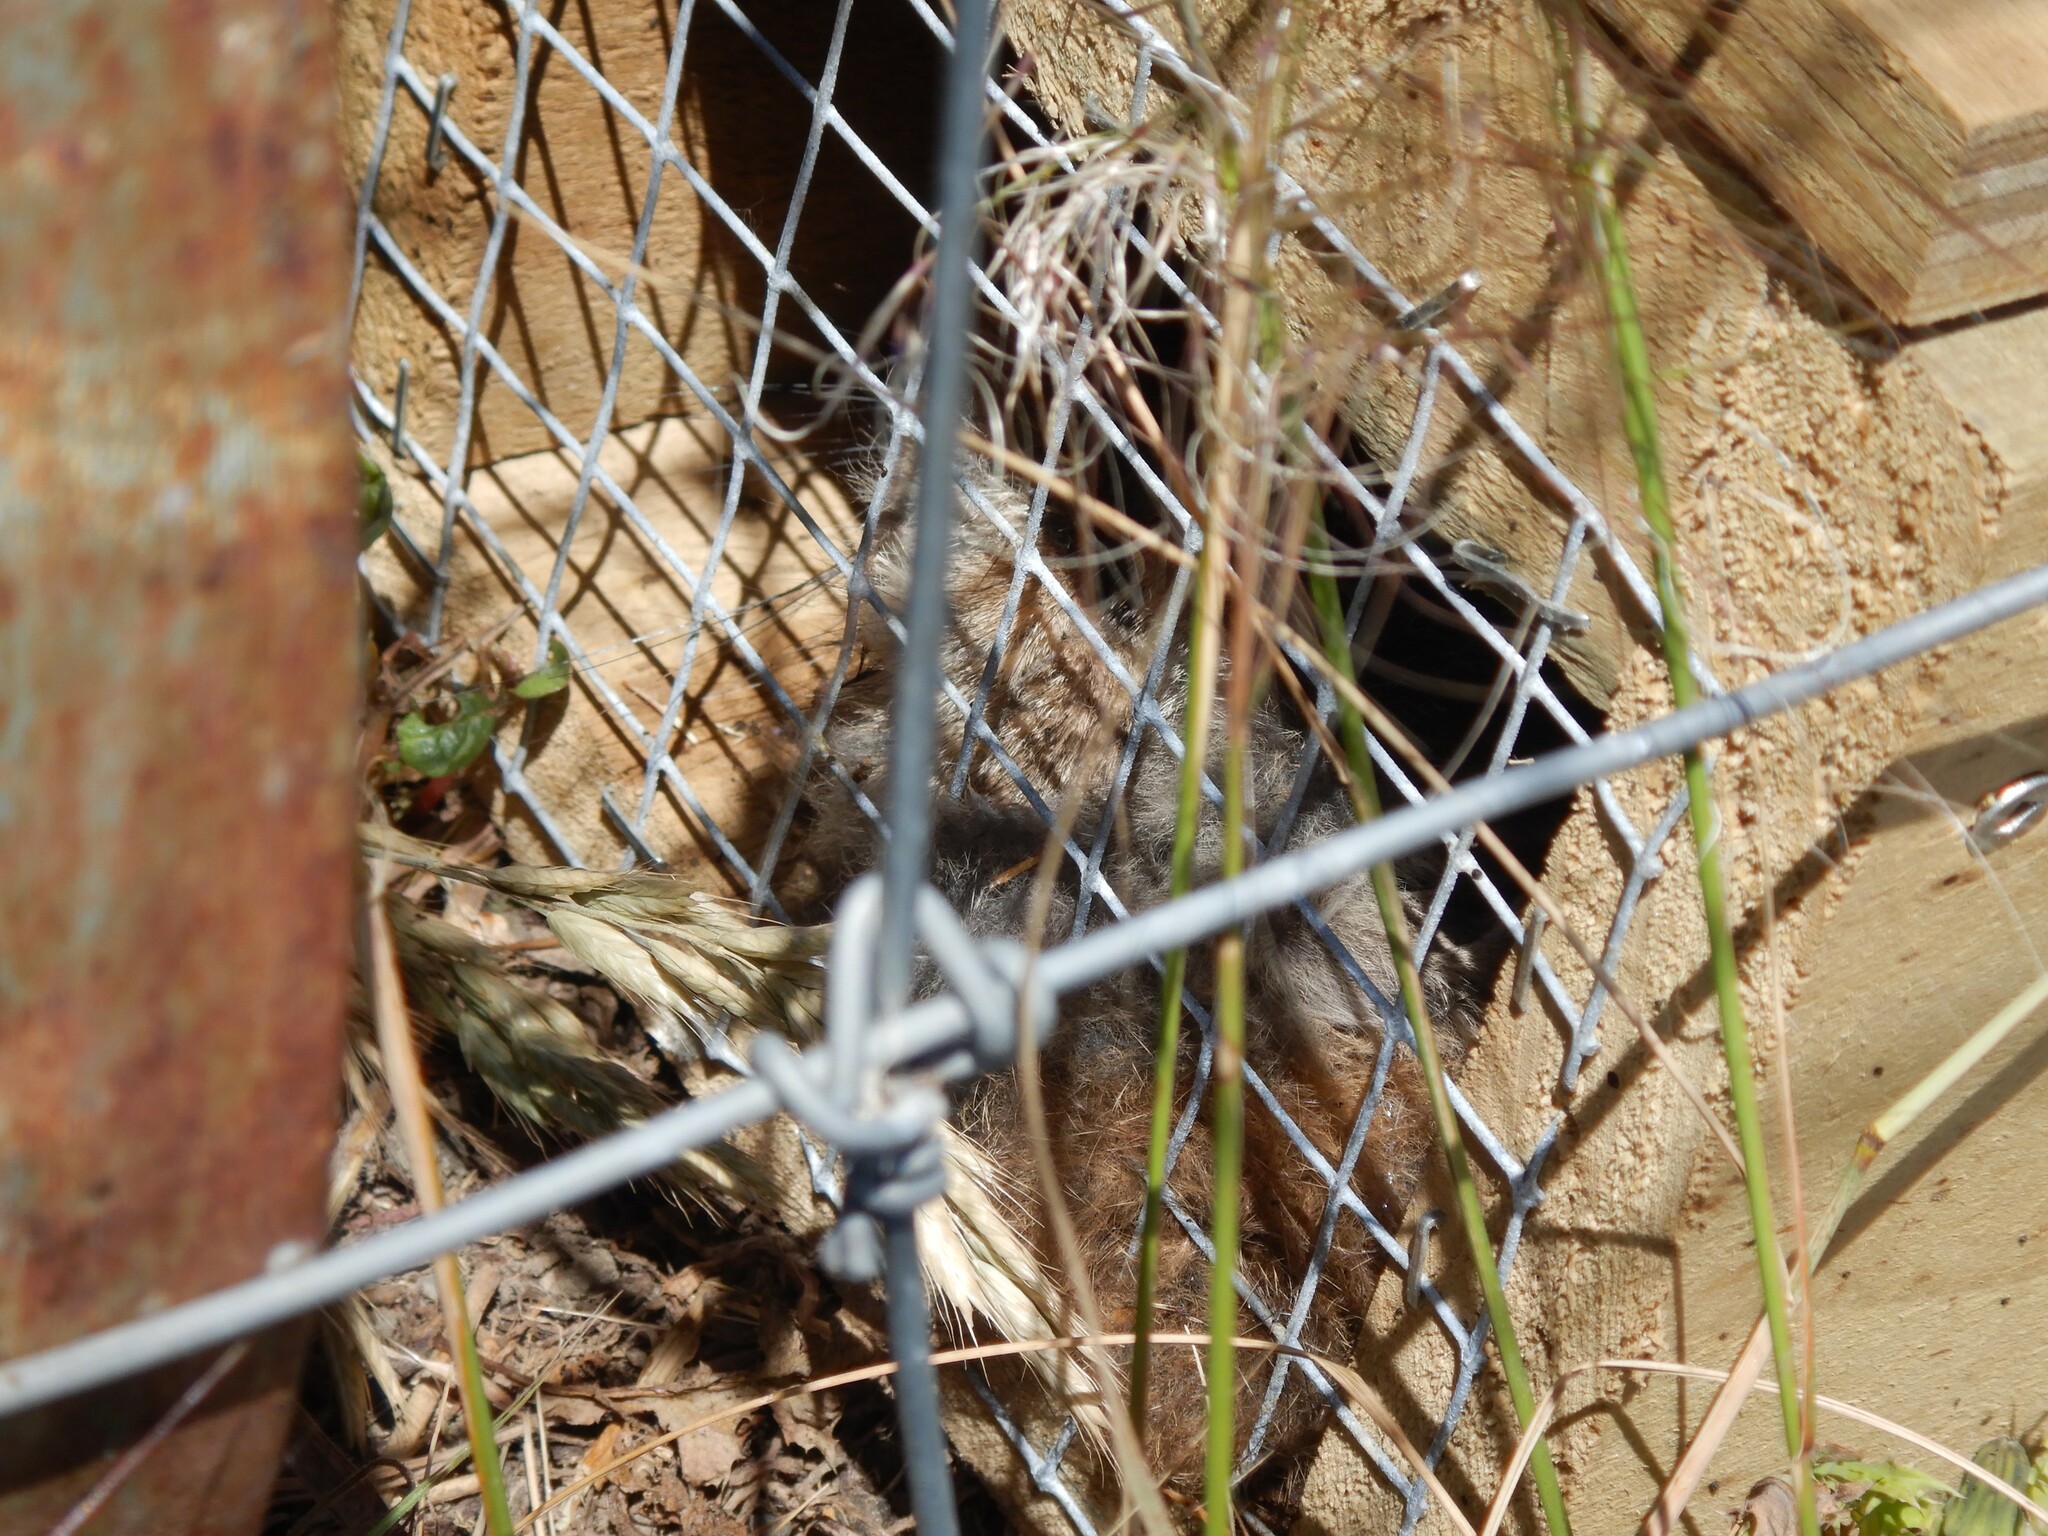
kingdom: Animalia
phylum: Chordata
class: Mammalia
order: Diprotodontia
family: Phalangeridae
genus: Trichosurus
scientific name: Trichosurus vulpecula
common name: Common brushtail
